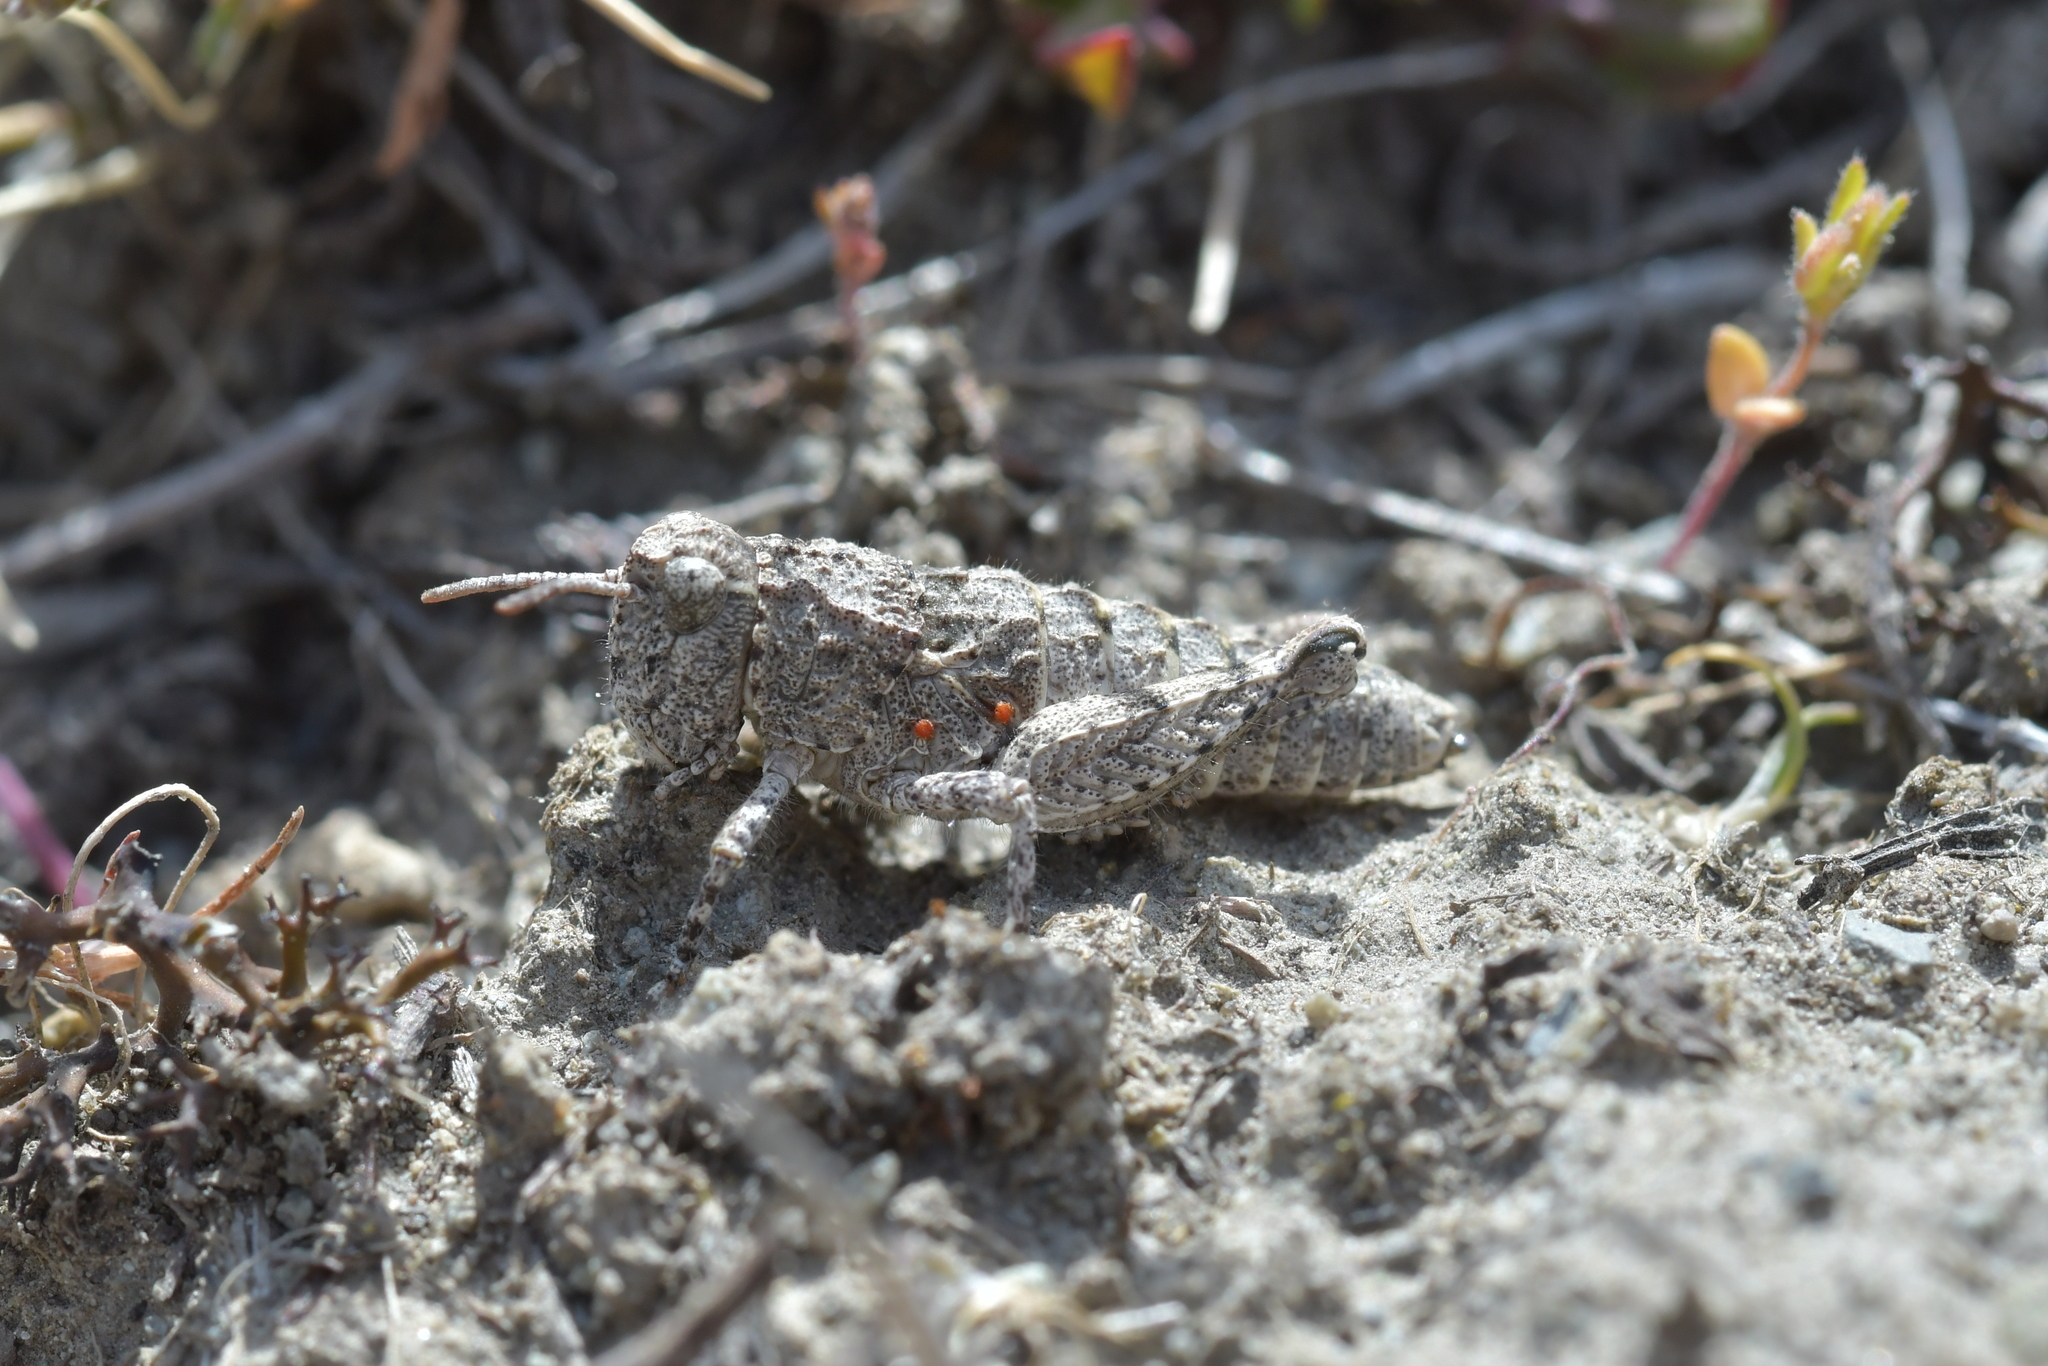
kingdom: Animalia
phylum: Arthropoda
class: Insecta
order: Orthoptera
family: Acrididae
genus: Sigaus
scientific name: Sigaus minutus
